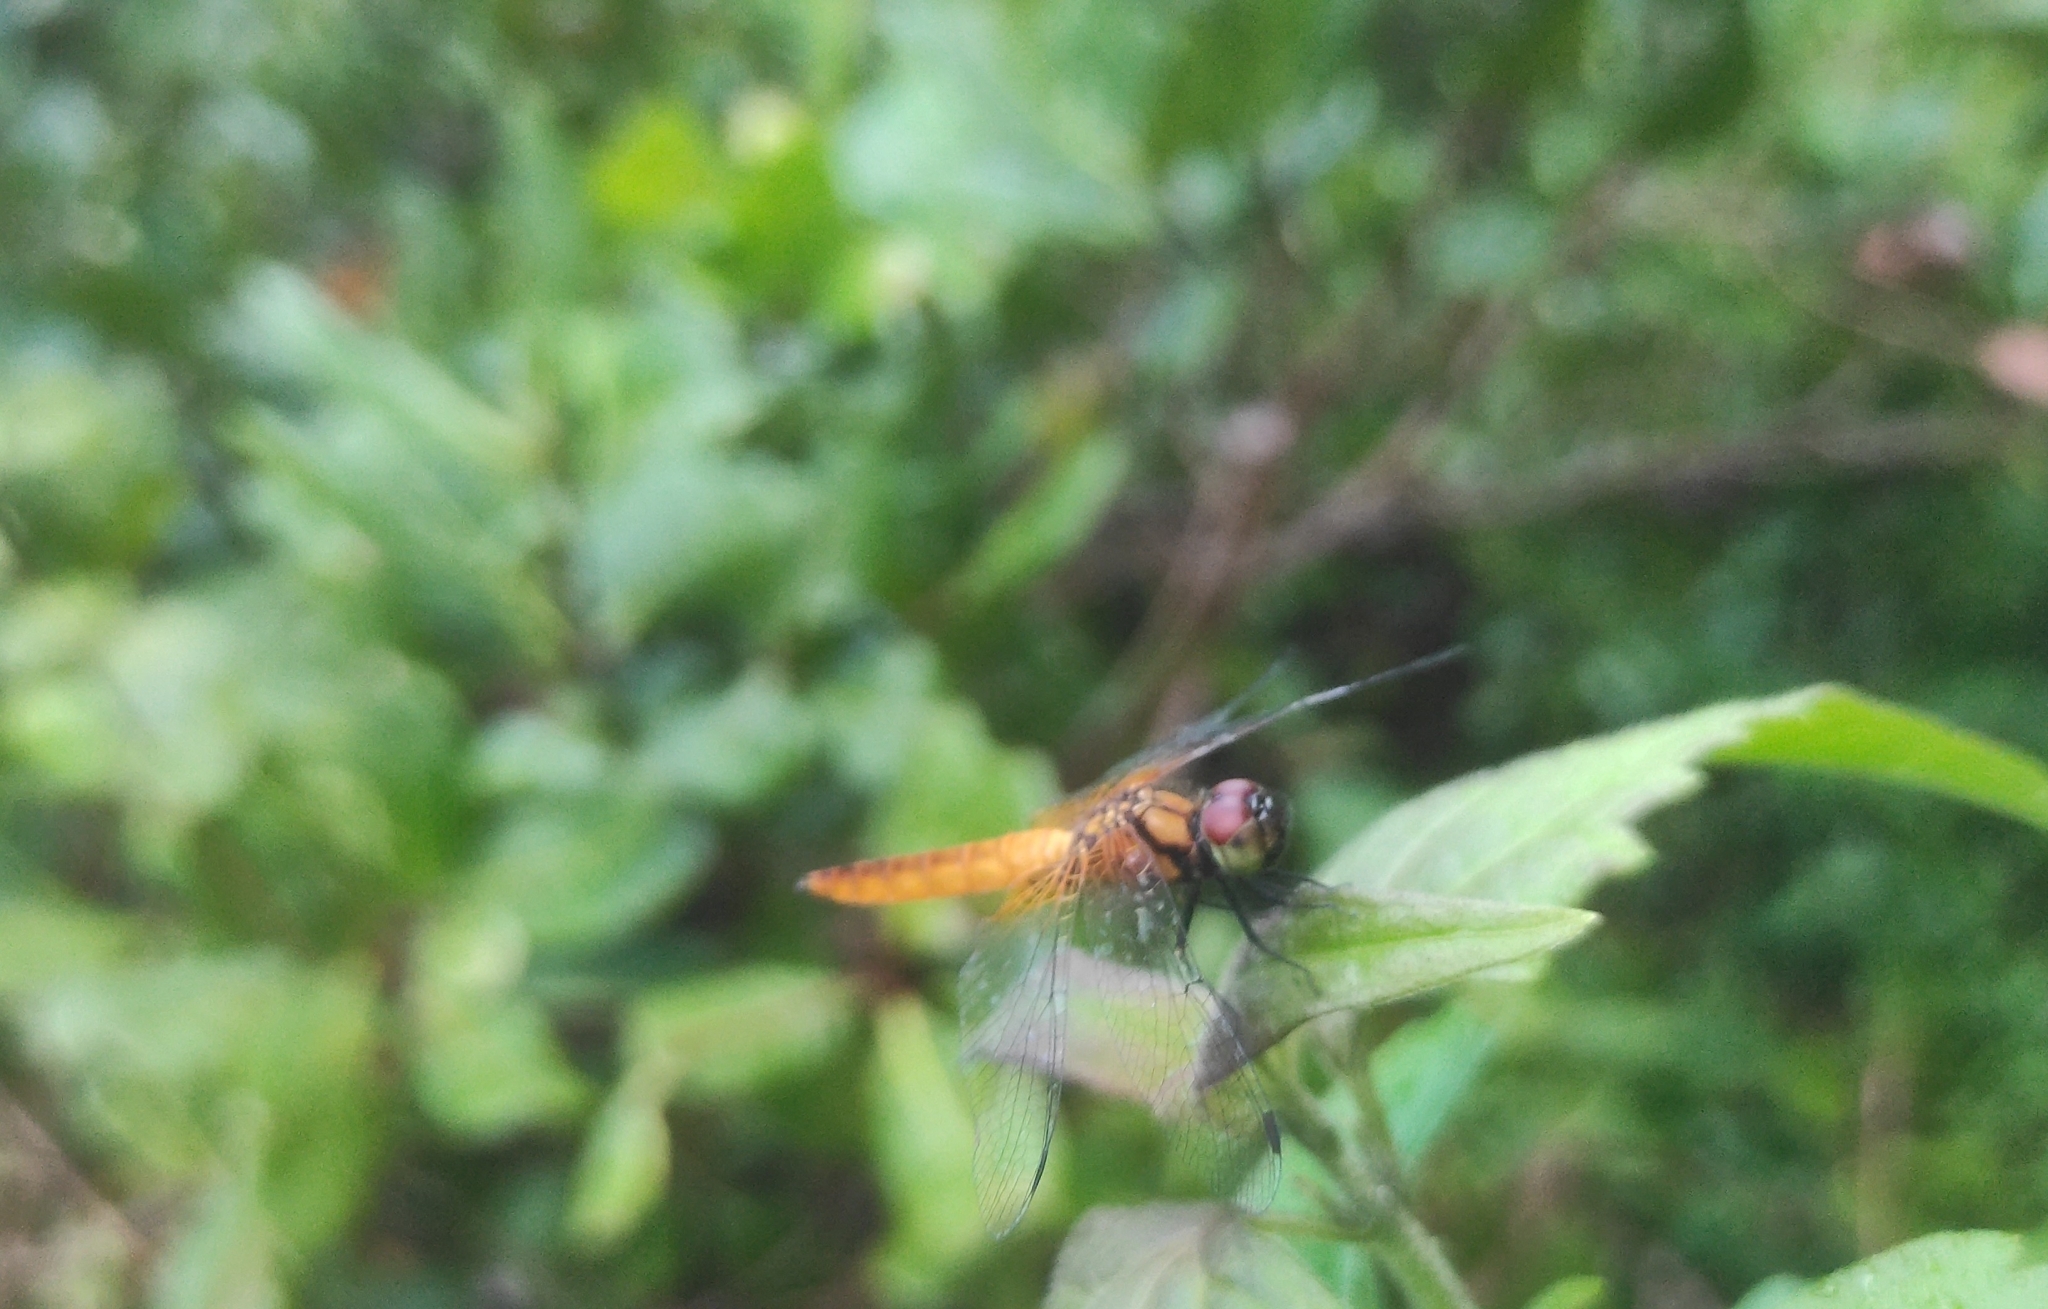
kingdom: Animalia
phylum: Arthropoda
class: Insecta
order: Odonata
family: Libellulidae
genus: Aethriamanta
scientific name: Aethriamanta brevipennis
